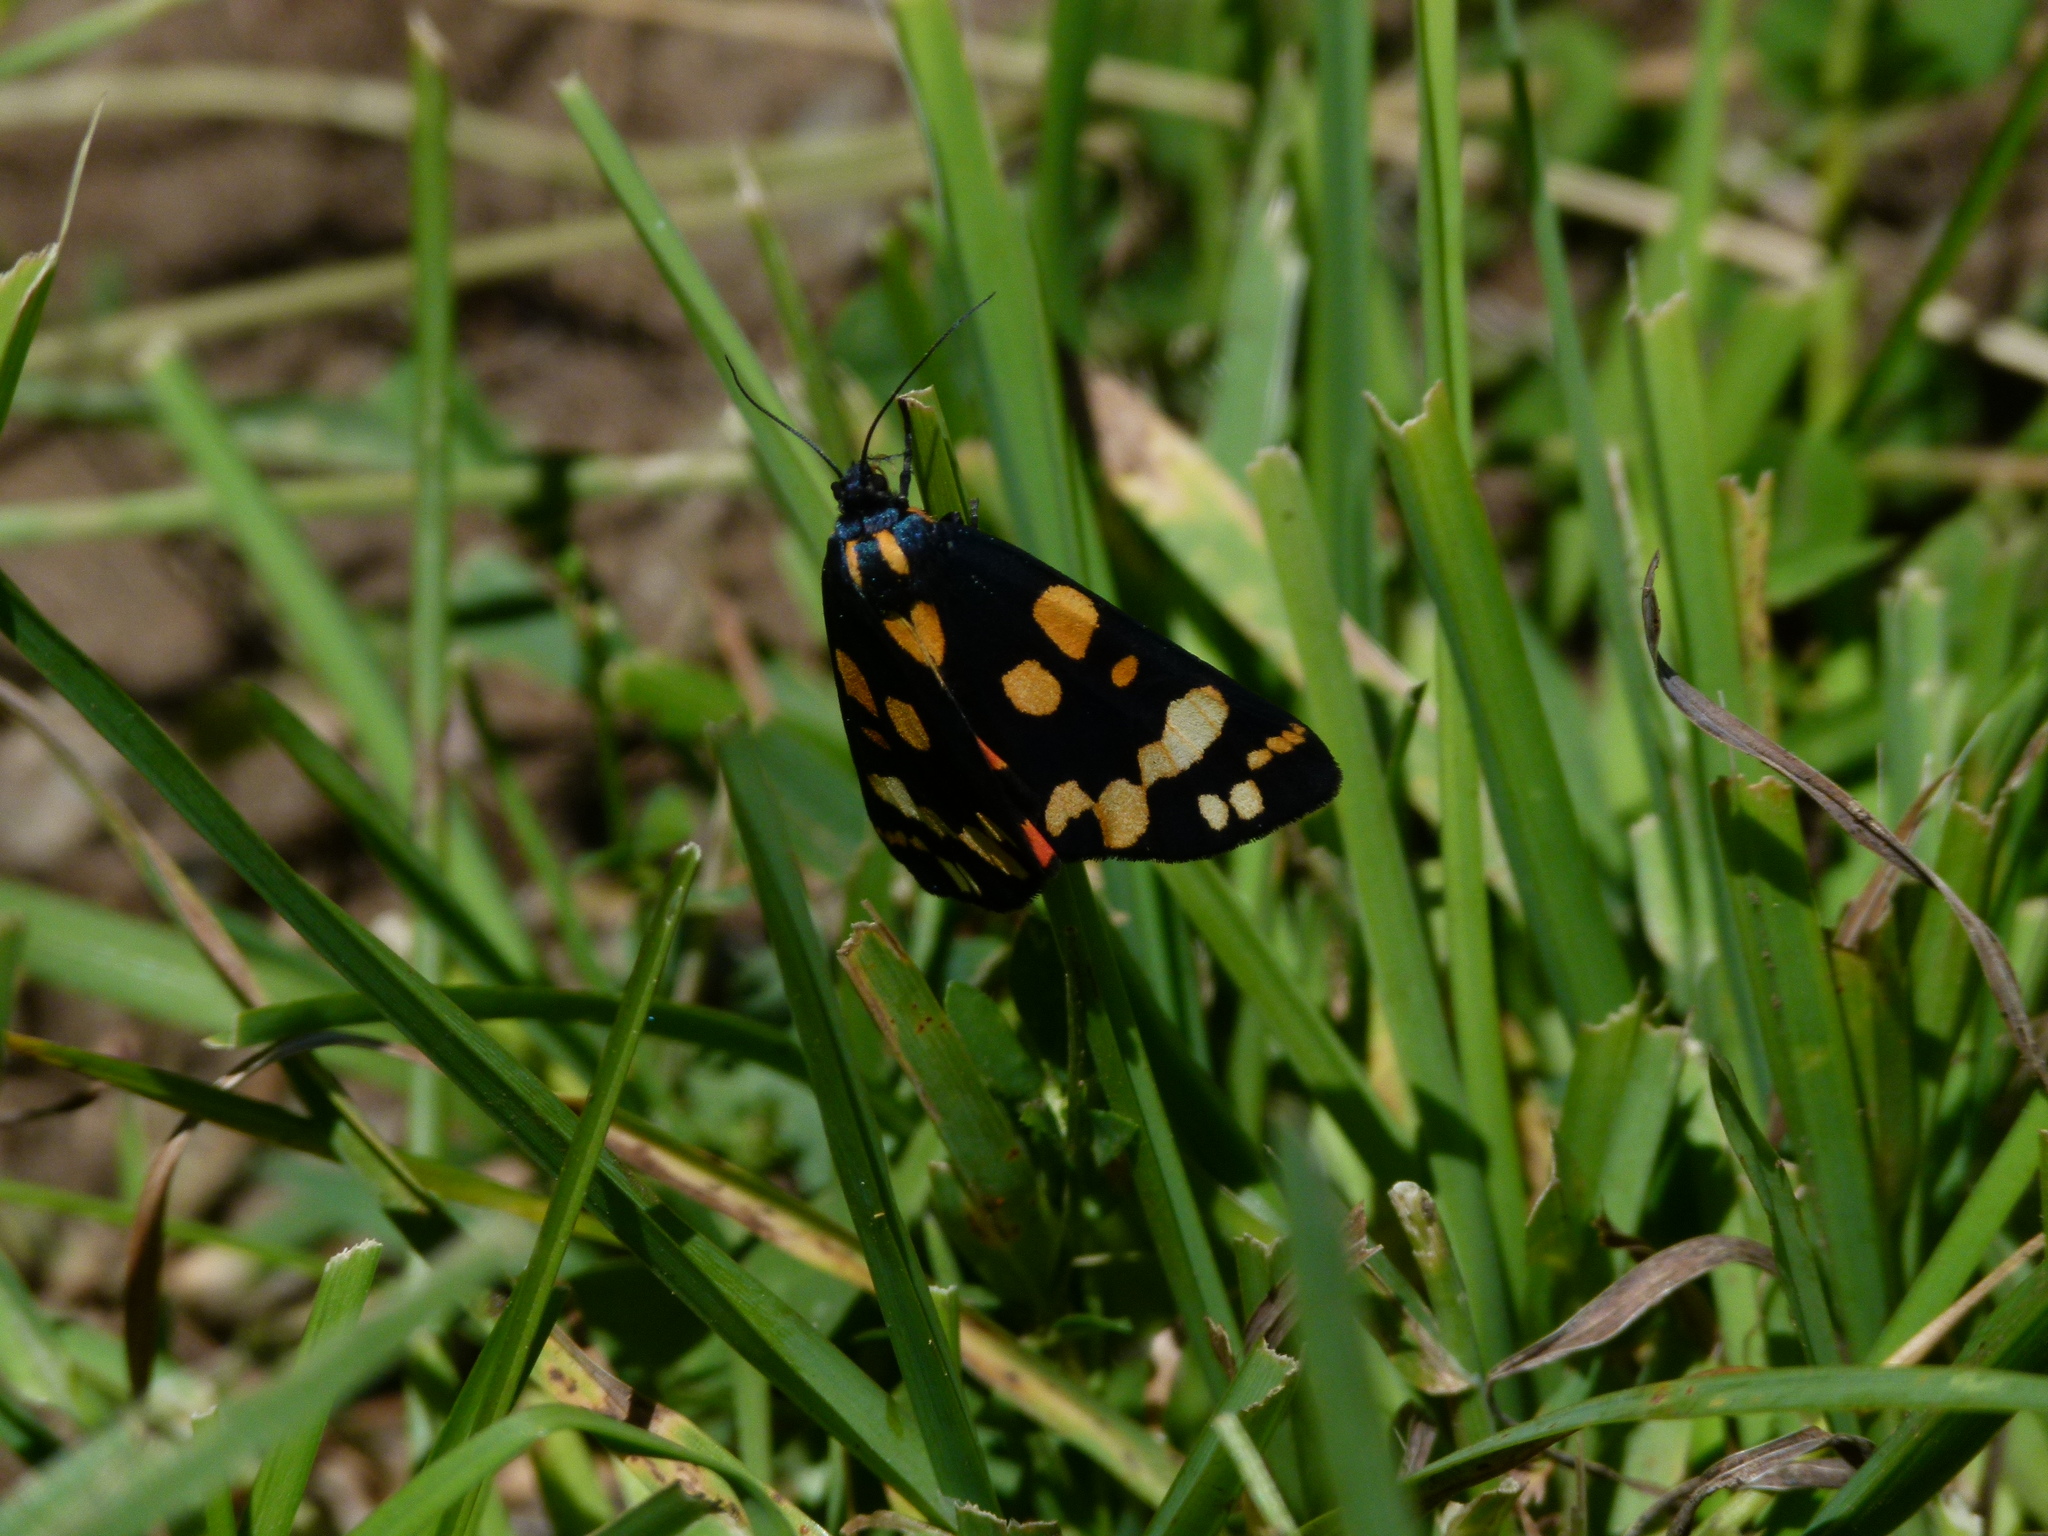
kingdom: Animalia
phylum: Arthropoda
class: Insecta
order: Lepidoptera
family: Erebidae
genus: Callimorpha
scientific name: Callimorpha dominula
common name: Scarlet tiger
